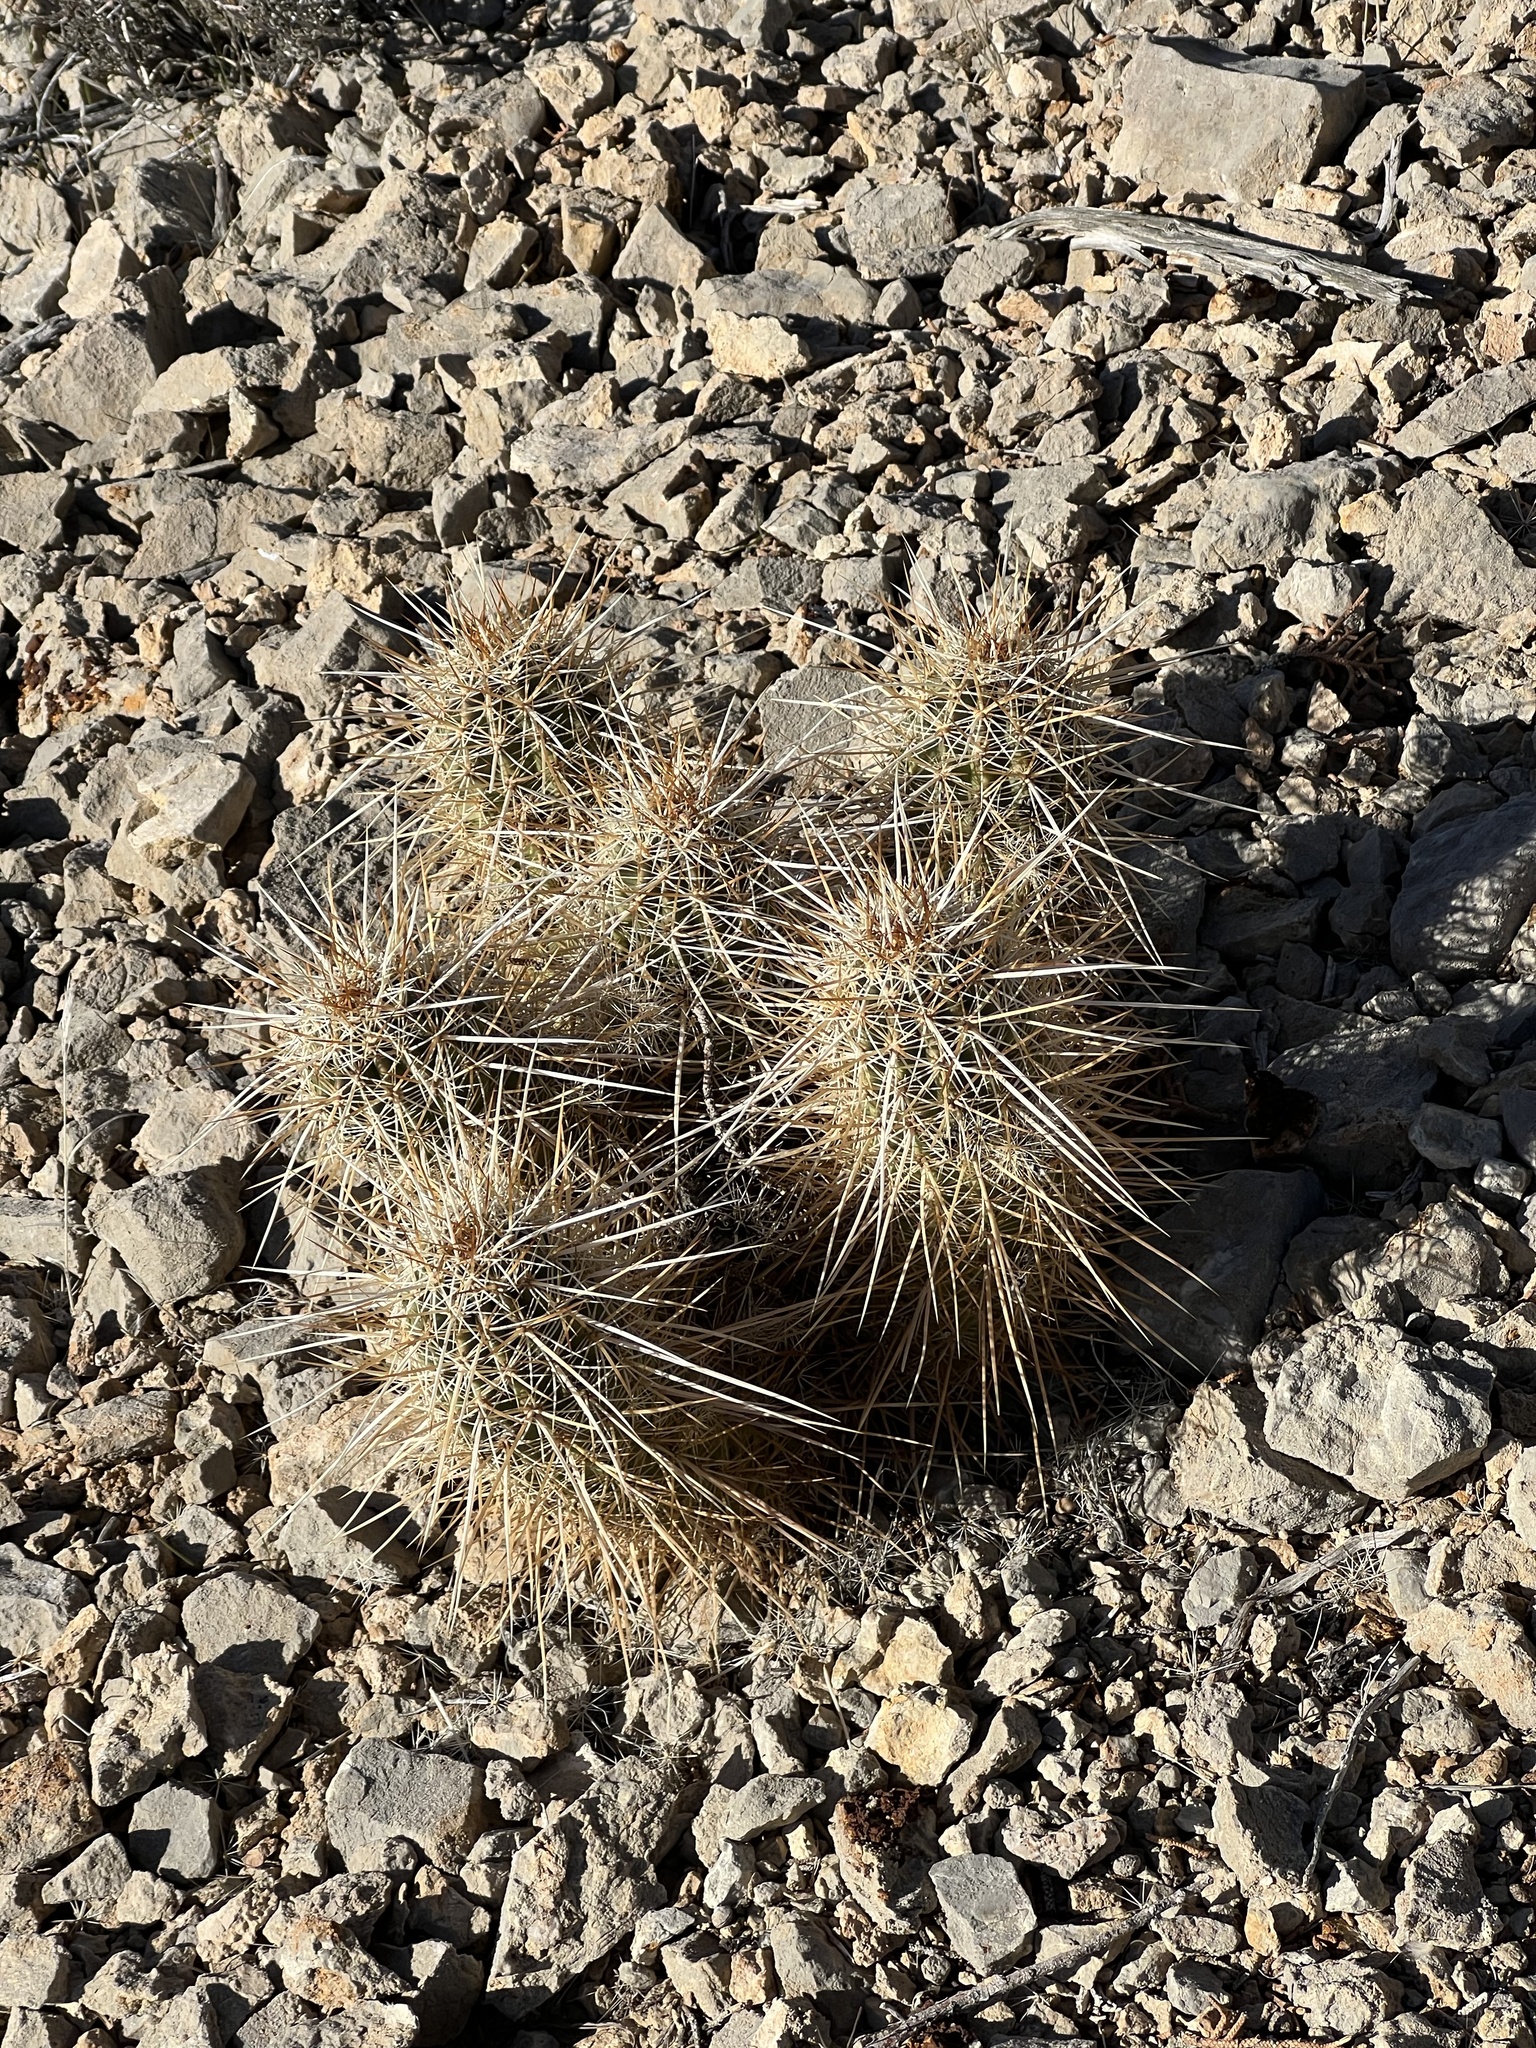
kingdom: Plantae
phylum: Tracheophyta
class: Magnoliopsida
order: Caryophyllales
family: Cactaceae
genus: Echinocereus
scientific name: Echinocereus engelmannii
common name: Engelmann's hedgehog cactus
